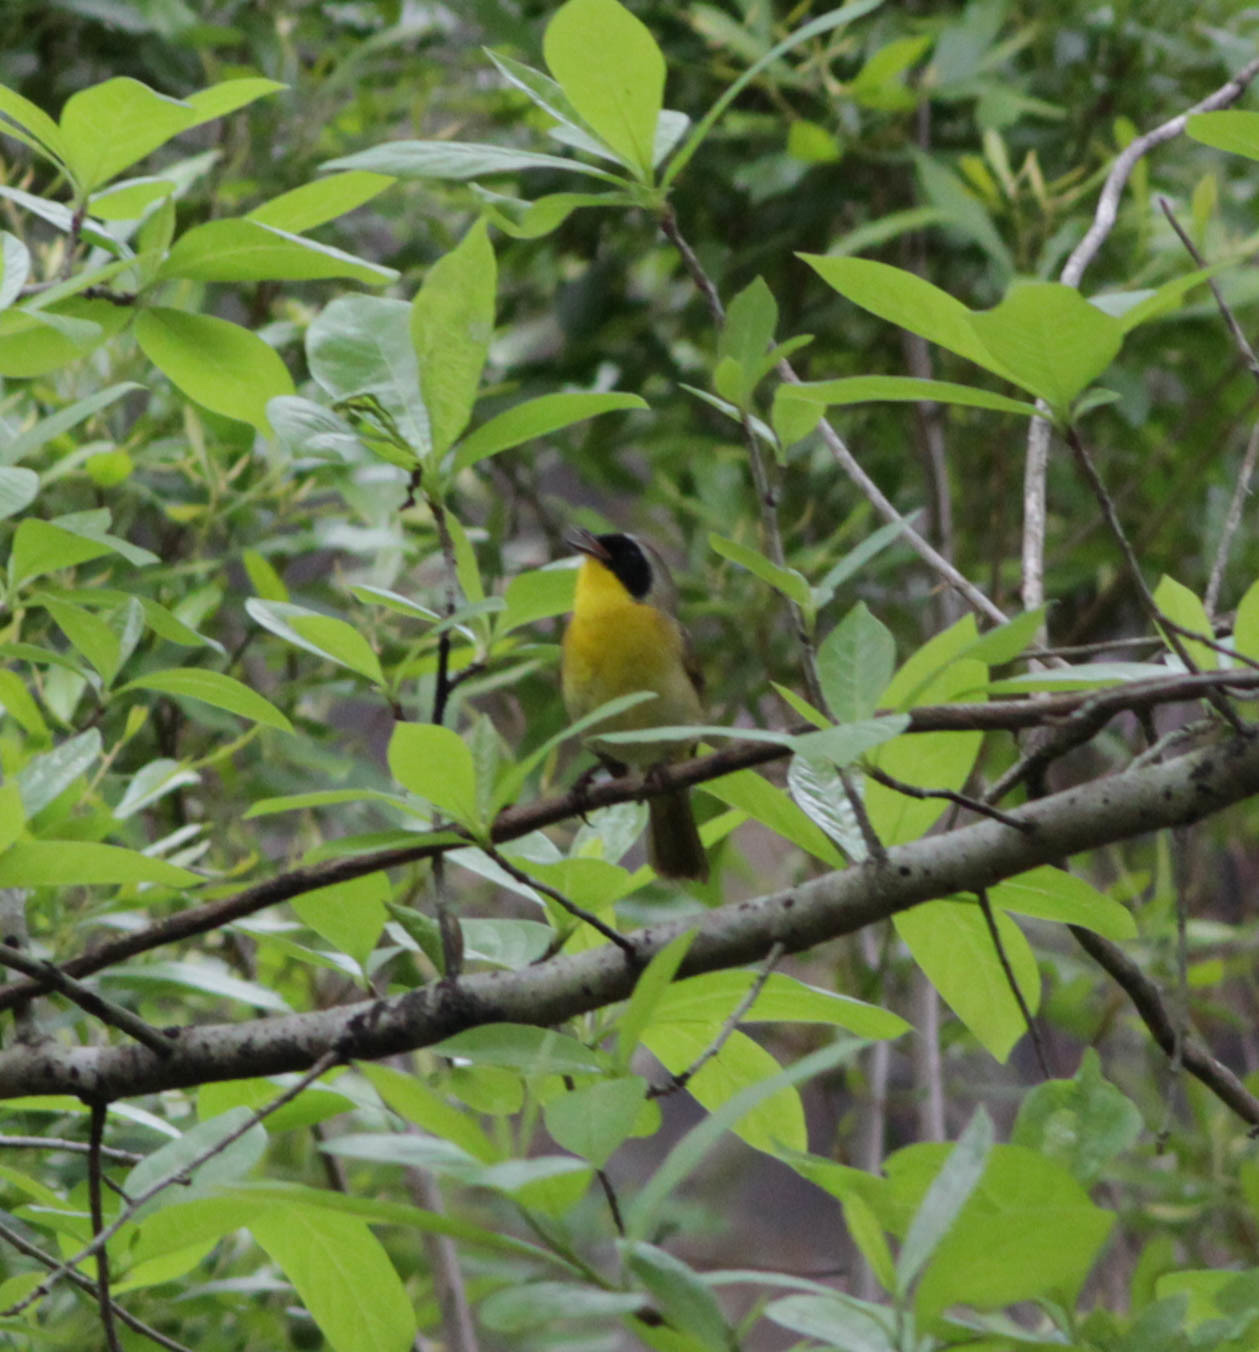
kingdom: Animalia
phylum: Chordata
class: Aves
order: Passeriformes
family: Parulidae
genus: Geothlypis
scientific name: Geothlypis trichas
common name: Common yellowthroat
